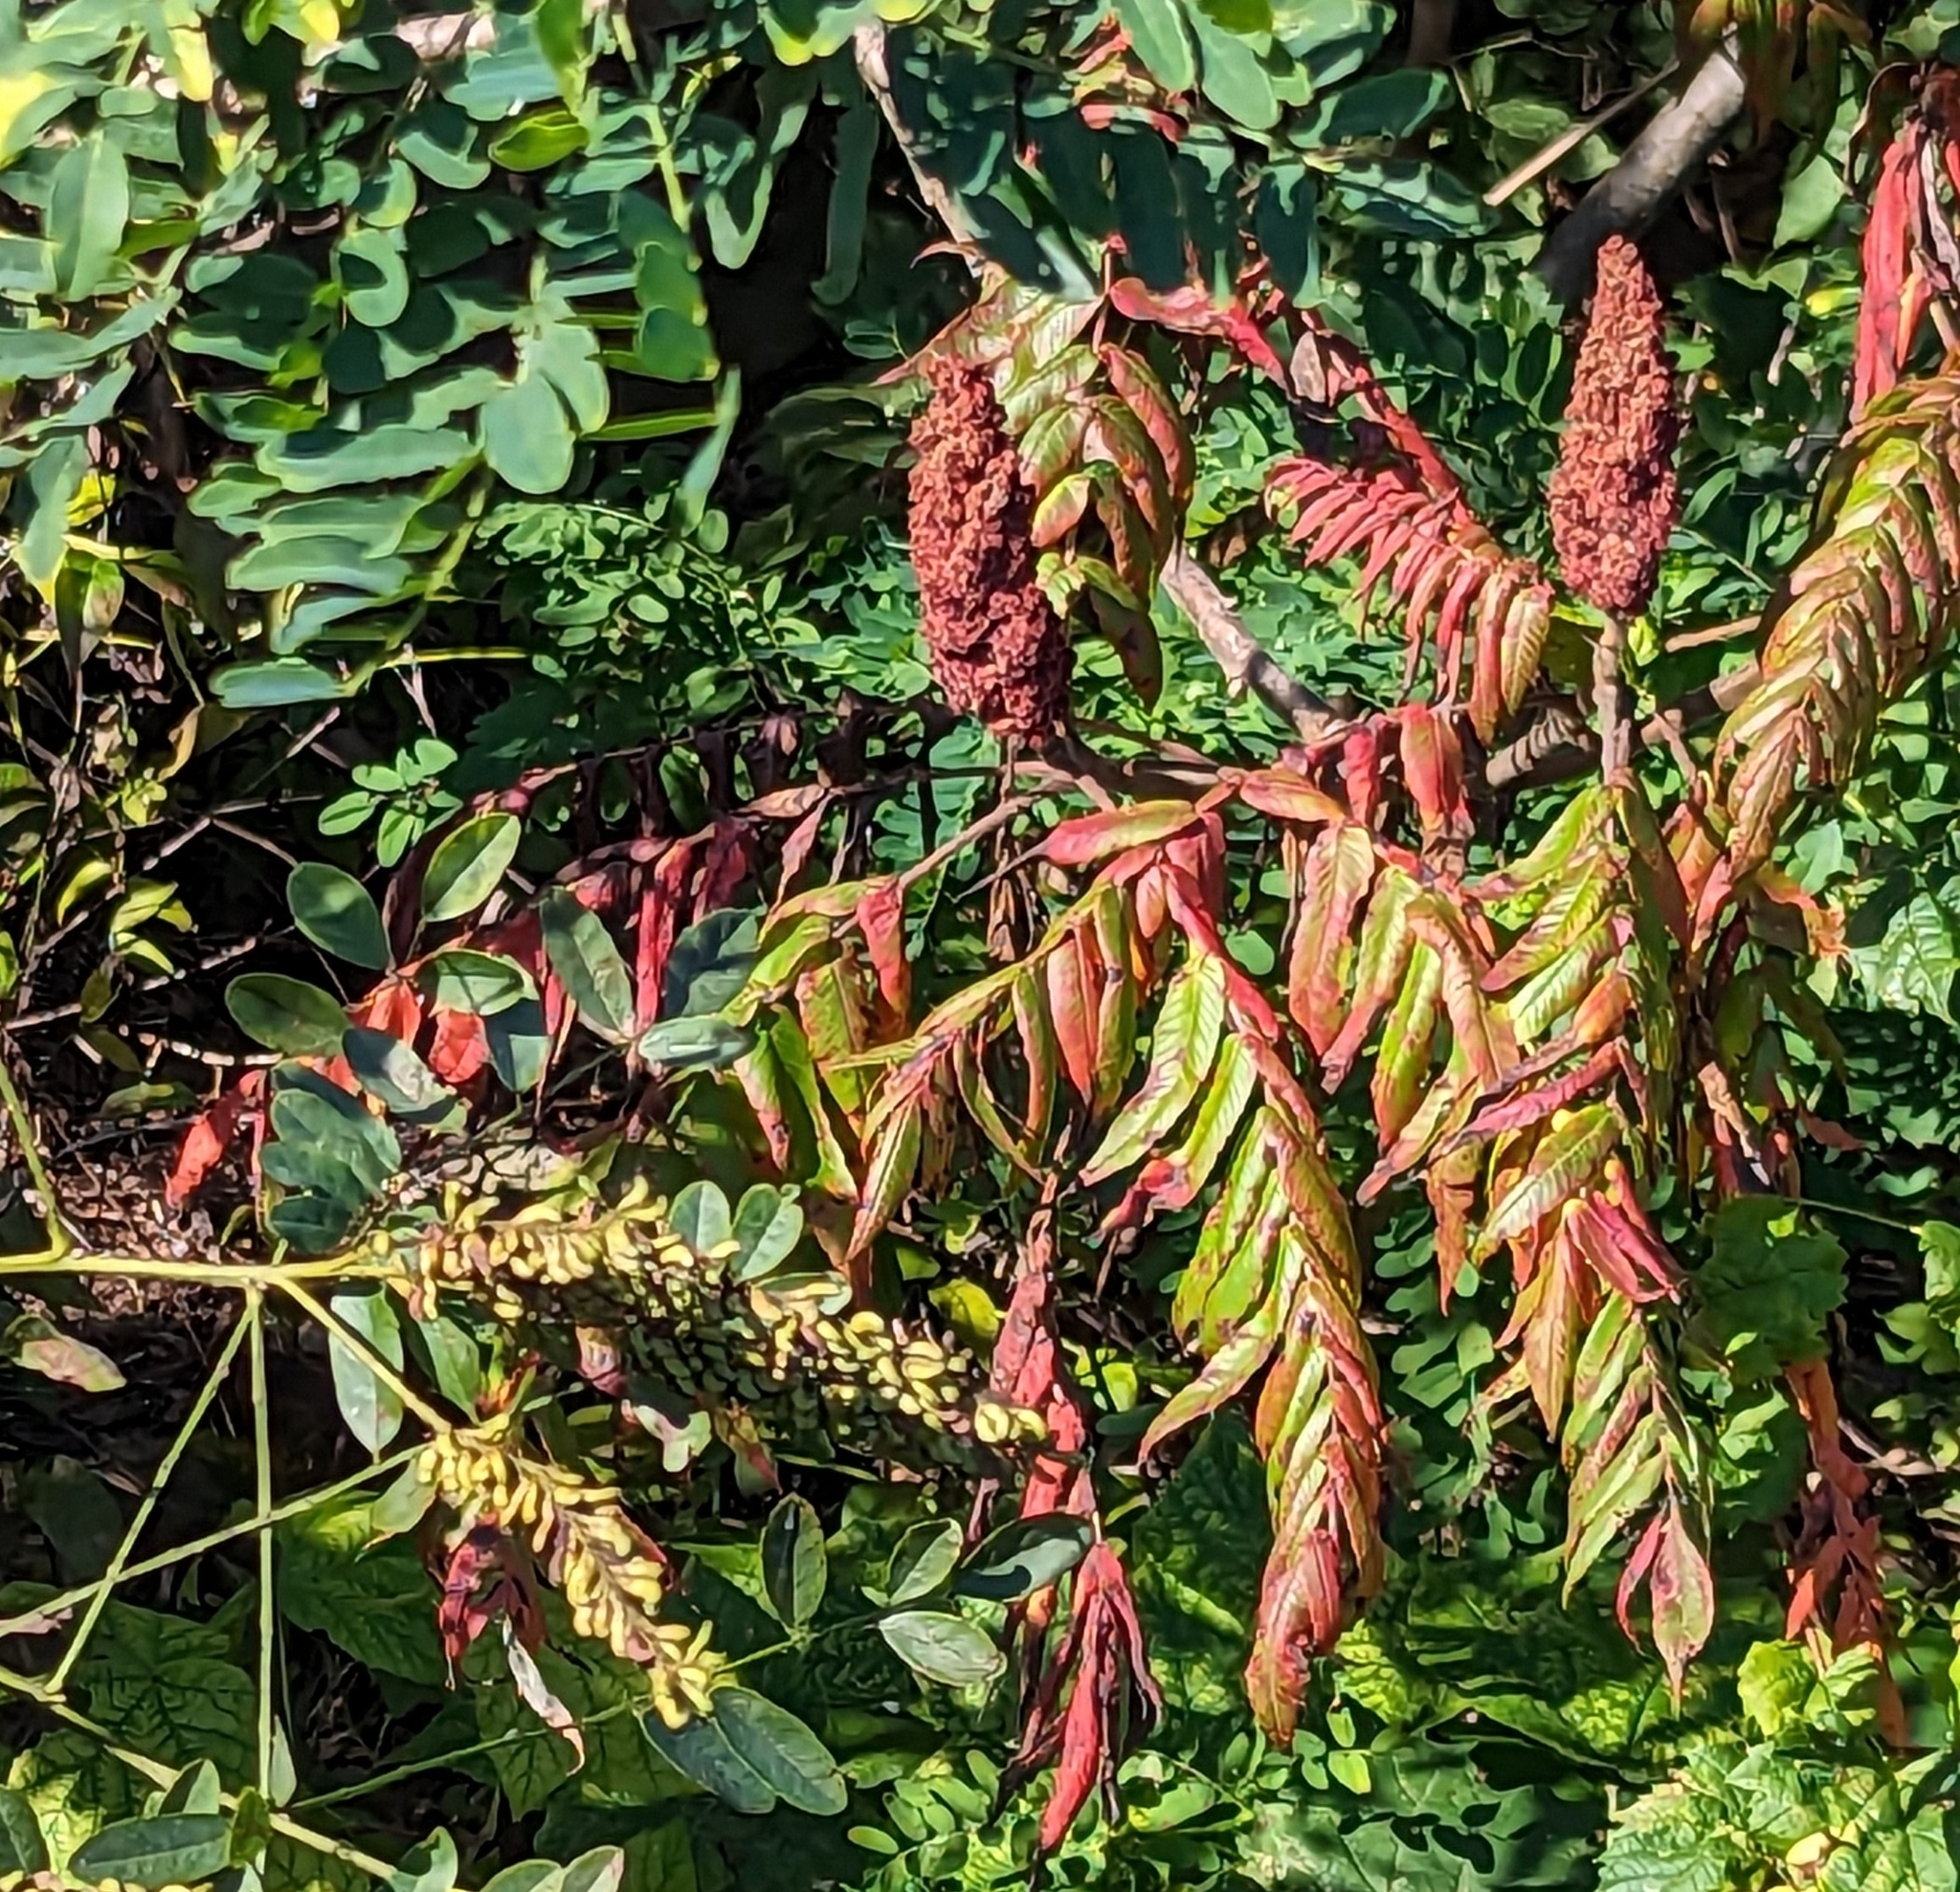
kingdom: Plantae
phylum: Tracheophyta
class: Magnoliopsida
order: Sapindales
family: Anacardiaceae
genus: Rhus
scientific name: Rhus typhina
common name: Staghorn sumac
